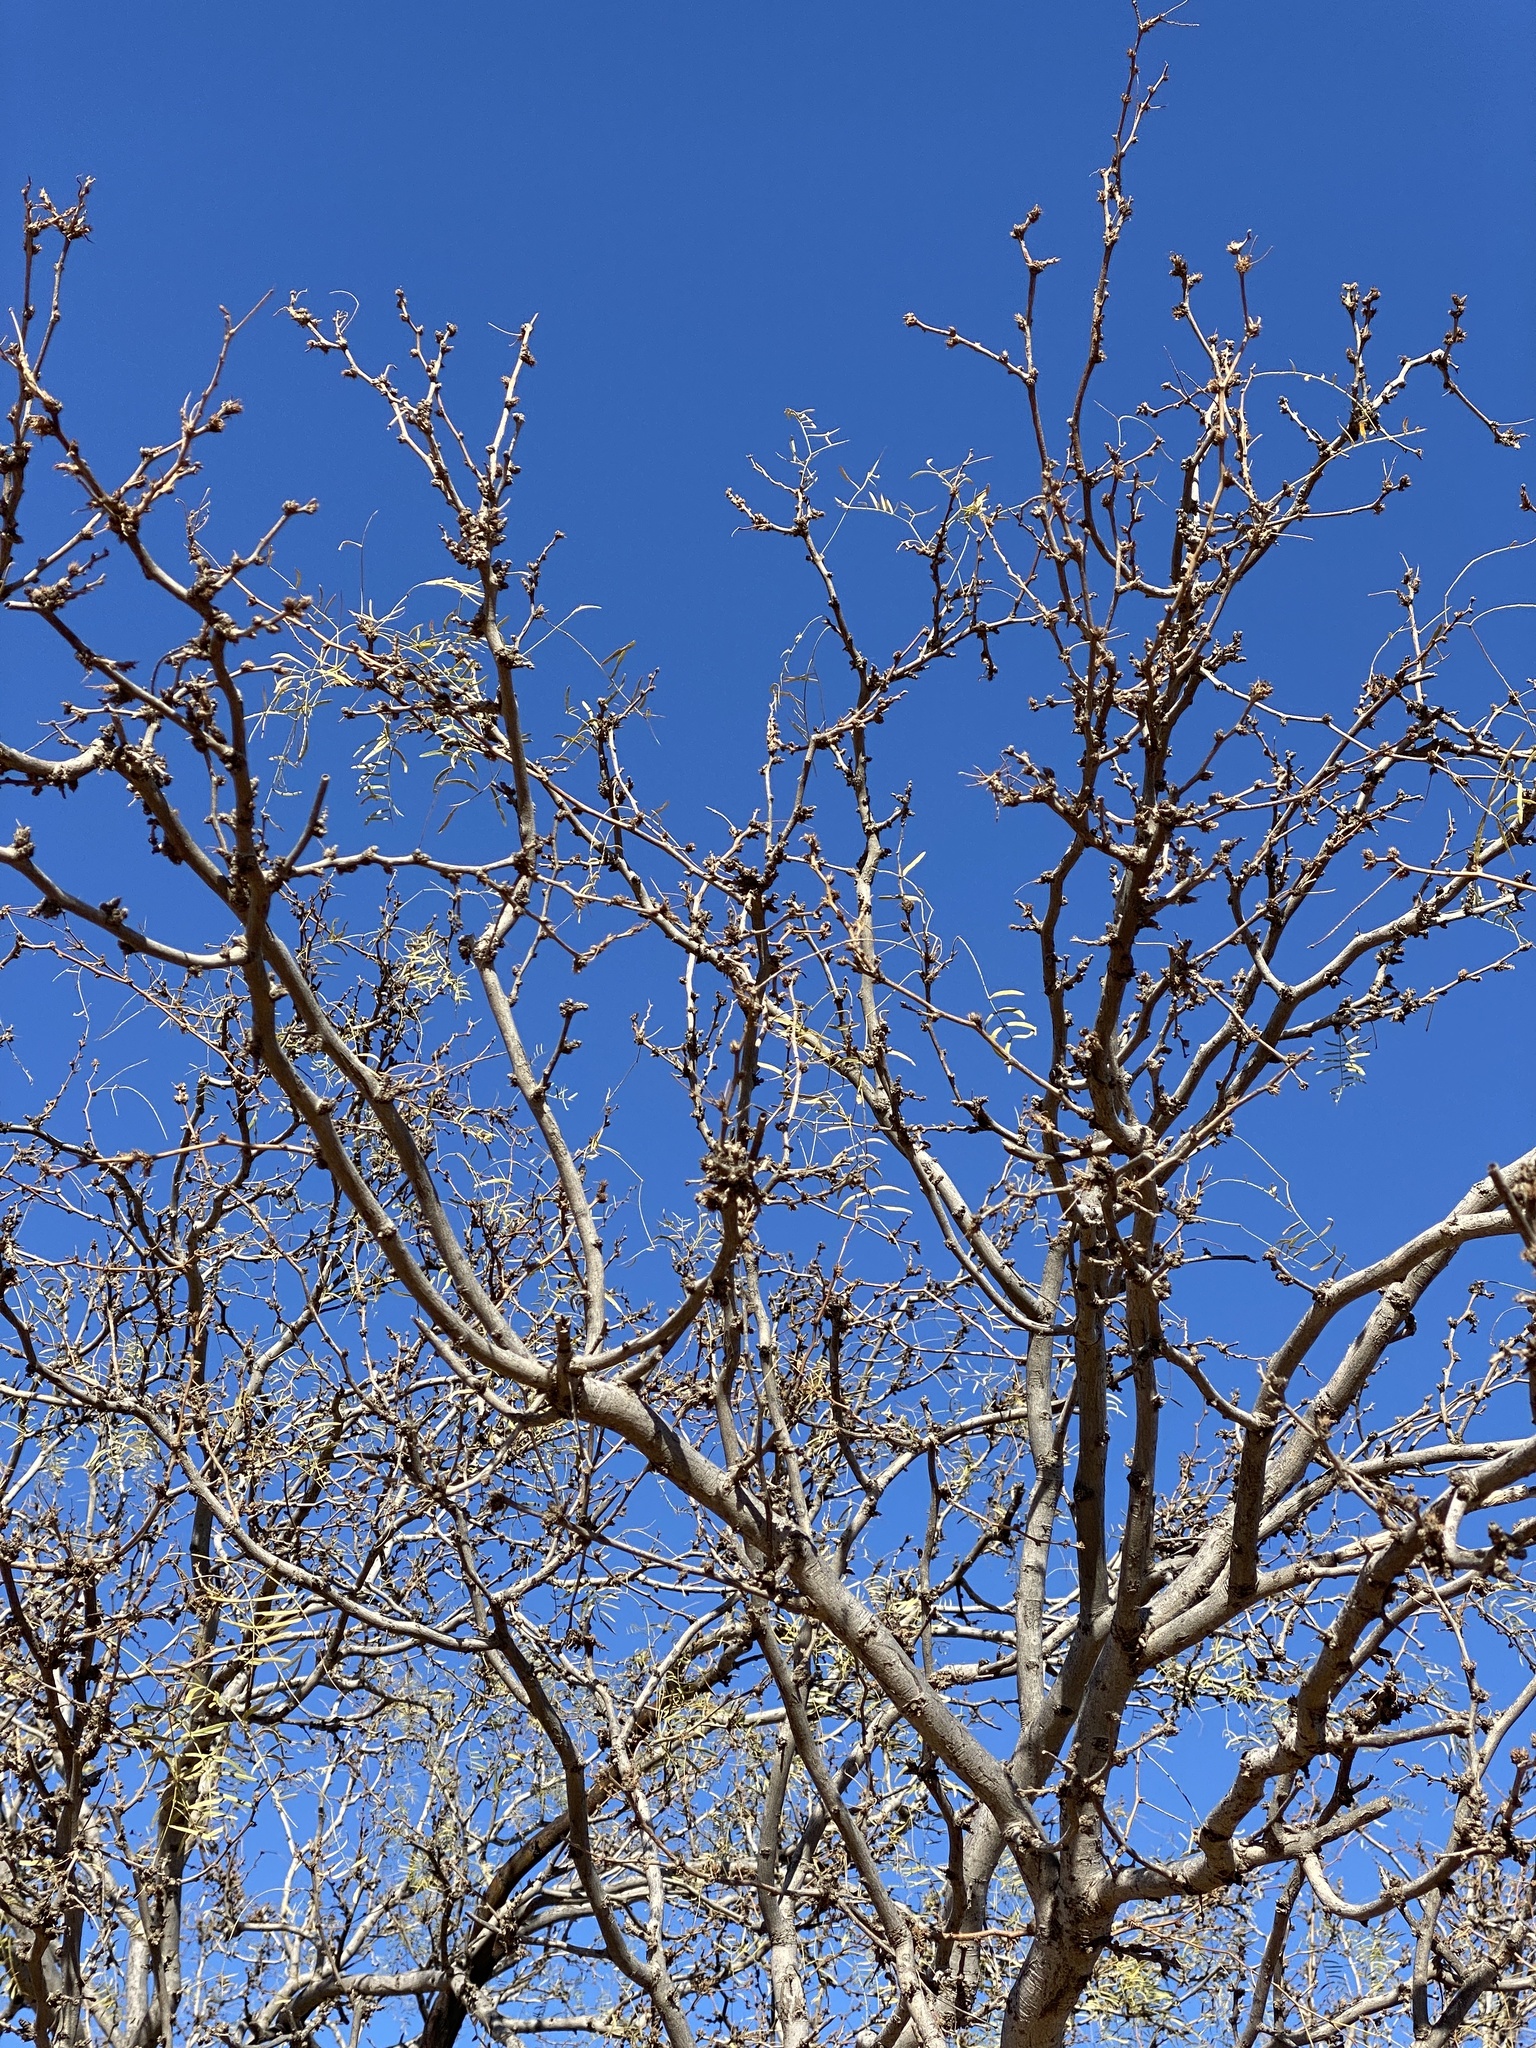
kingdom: Plantae
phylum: Tracheophyta
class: Magnoliopsida
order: Fabales
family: Fabaceae
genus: Prosopis
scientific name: Prosopis glandulosa
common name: Honey mesquite
